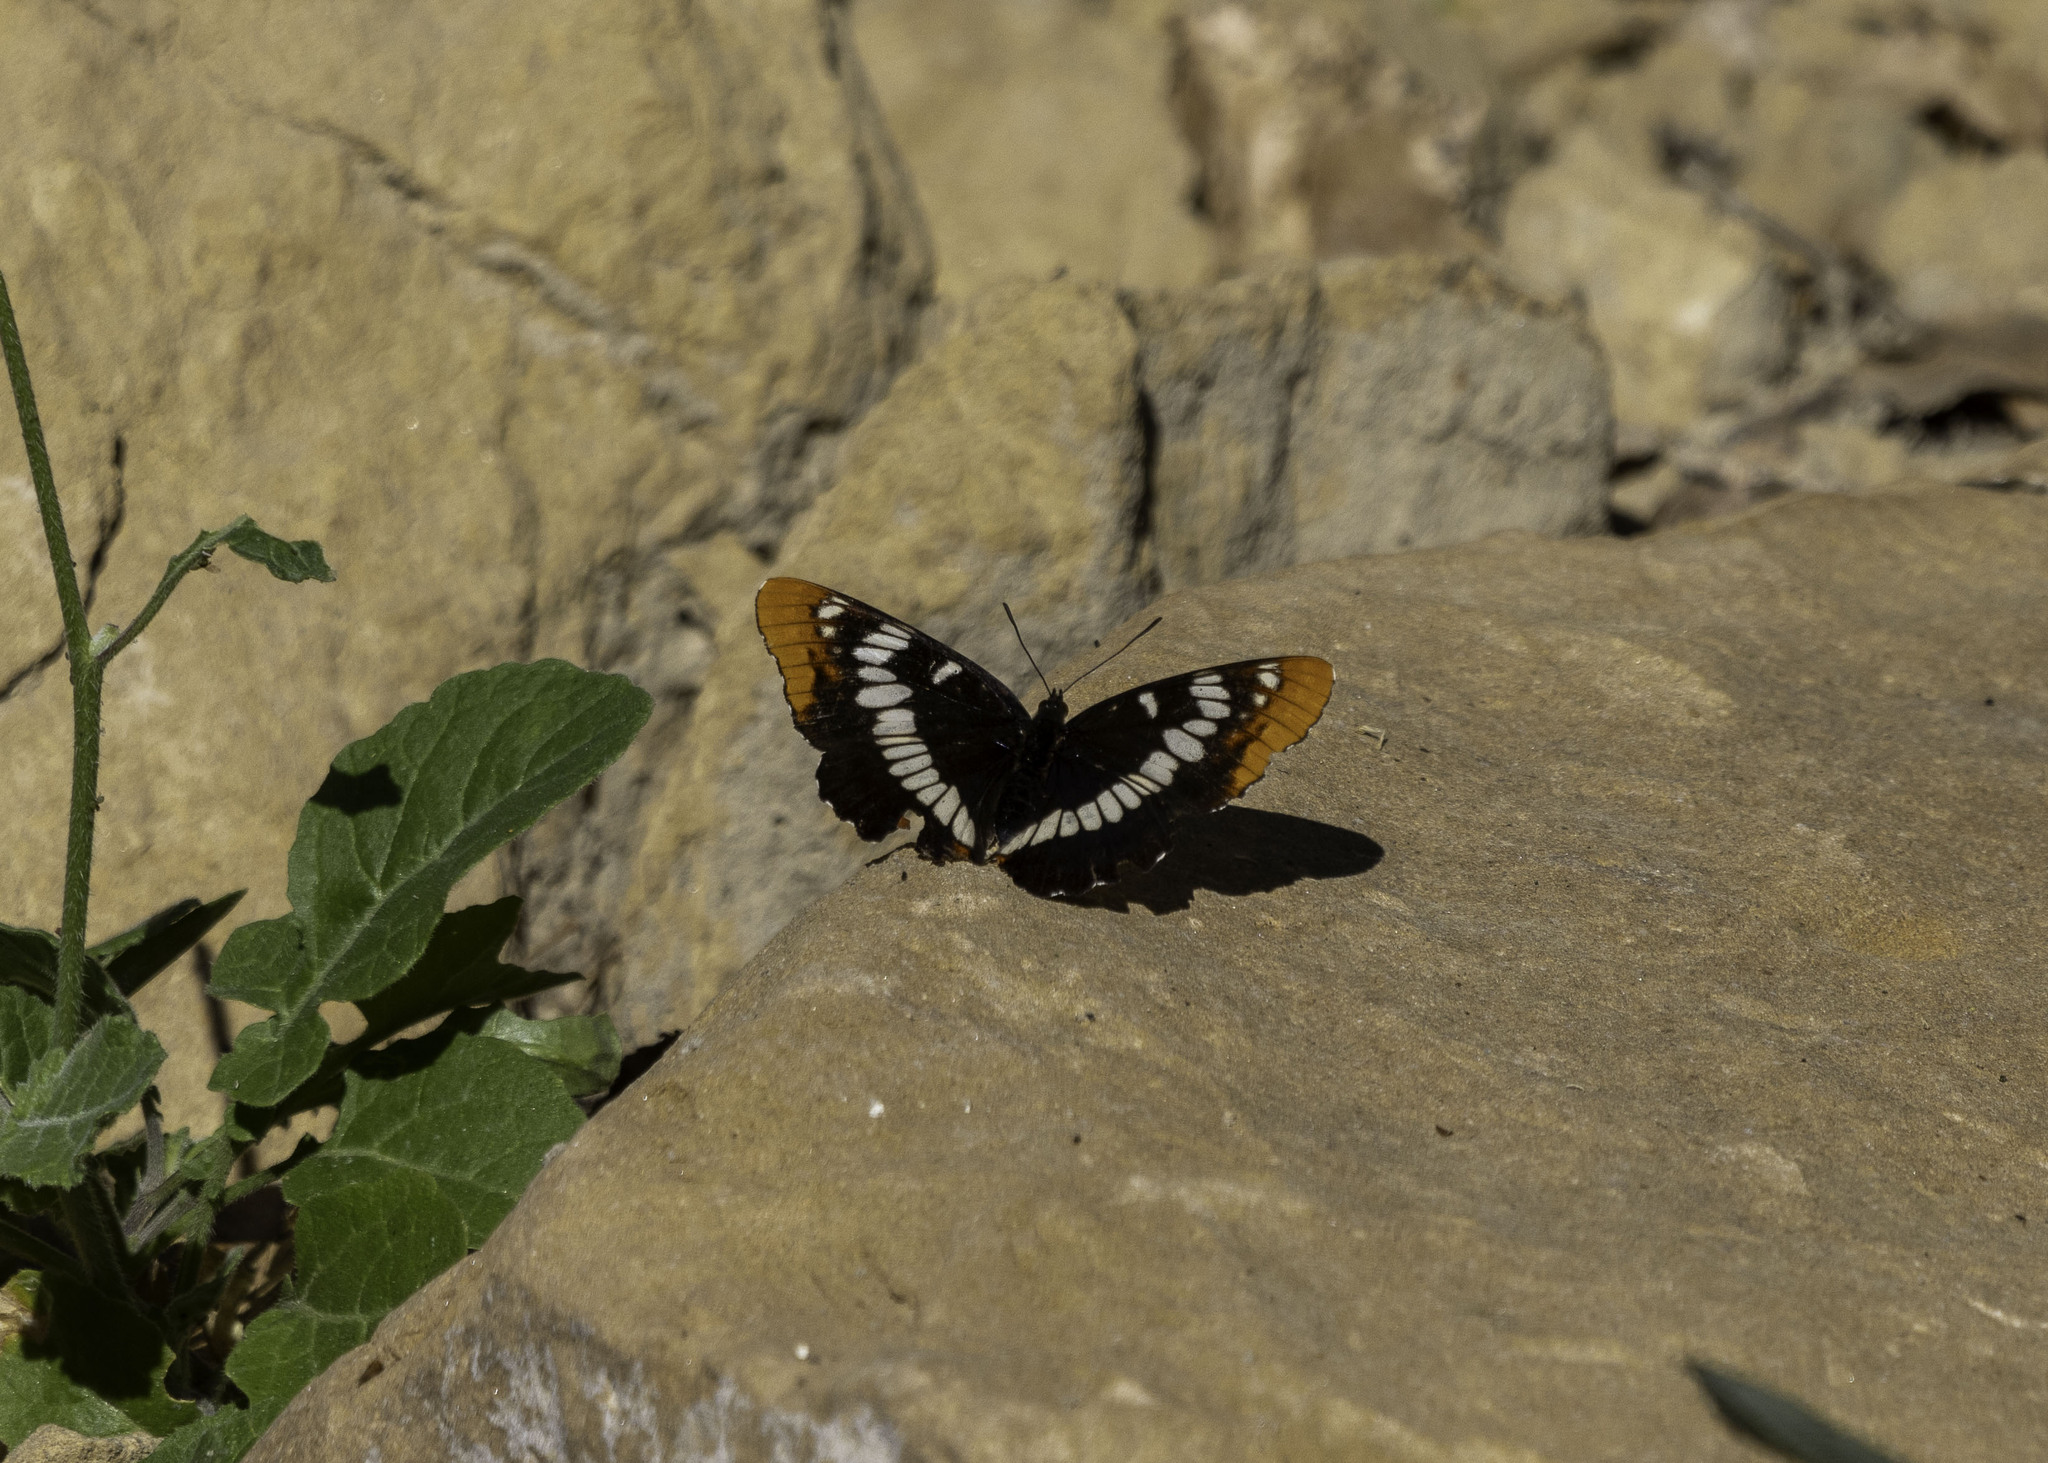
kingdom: Animalia
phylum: Arthropoda
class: Insecta
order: Lepidoptera
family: Nymphalidae
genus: Limenitis
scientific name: Limenitis lorquini
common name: Lorquin's admiral
